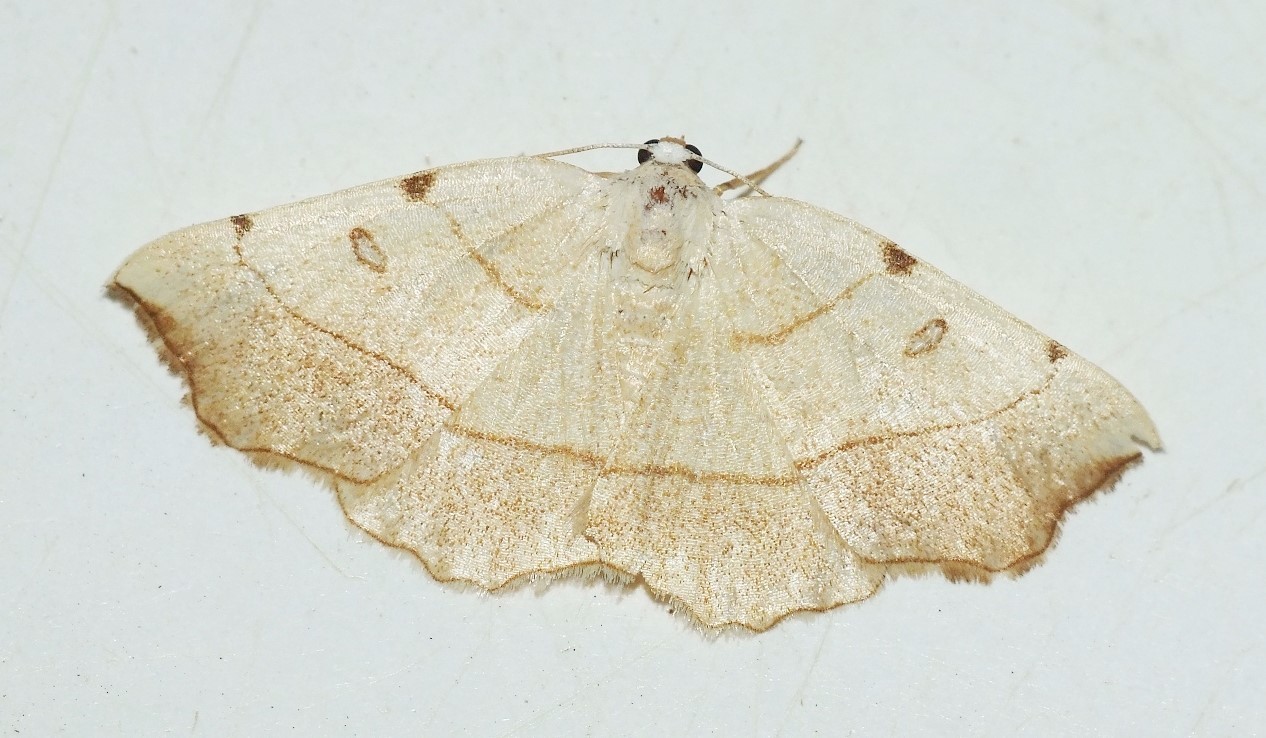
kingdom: Animalia
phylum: Arthropoda
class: Insecta
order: Lepidoptera
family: Geometridae
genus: Eilicrinia
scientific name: Eilicrinia trinotata
